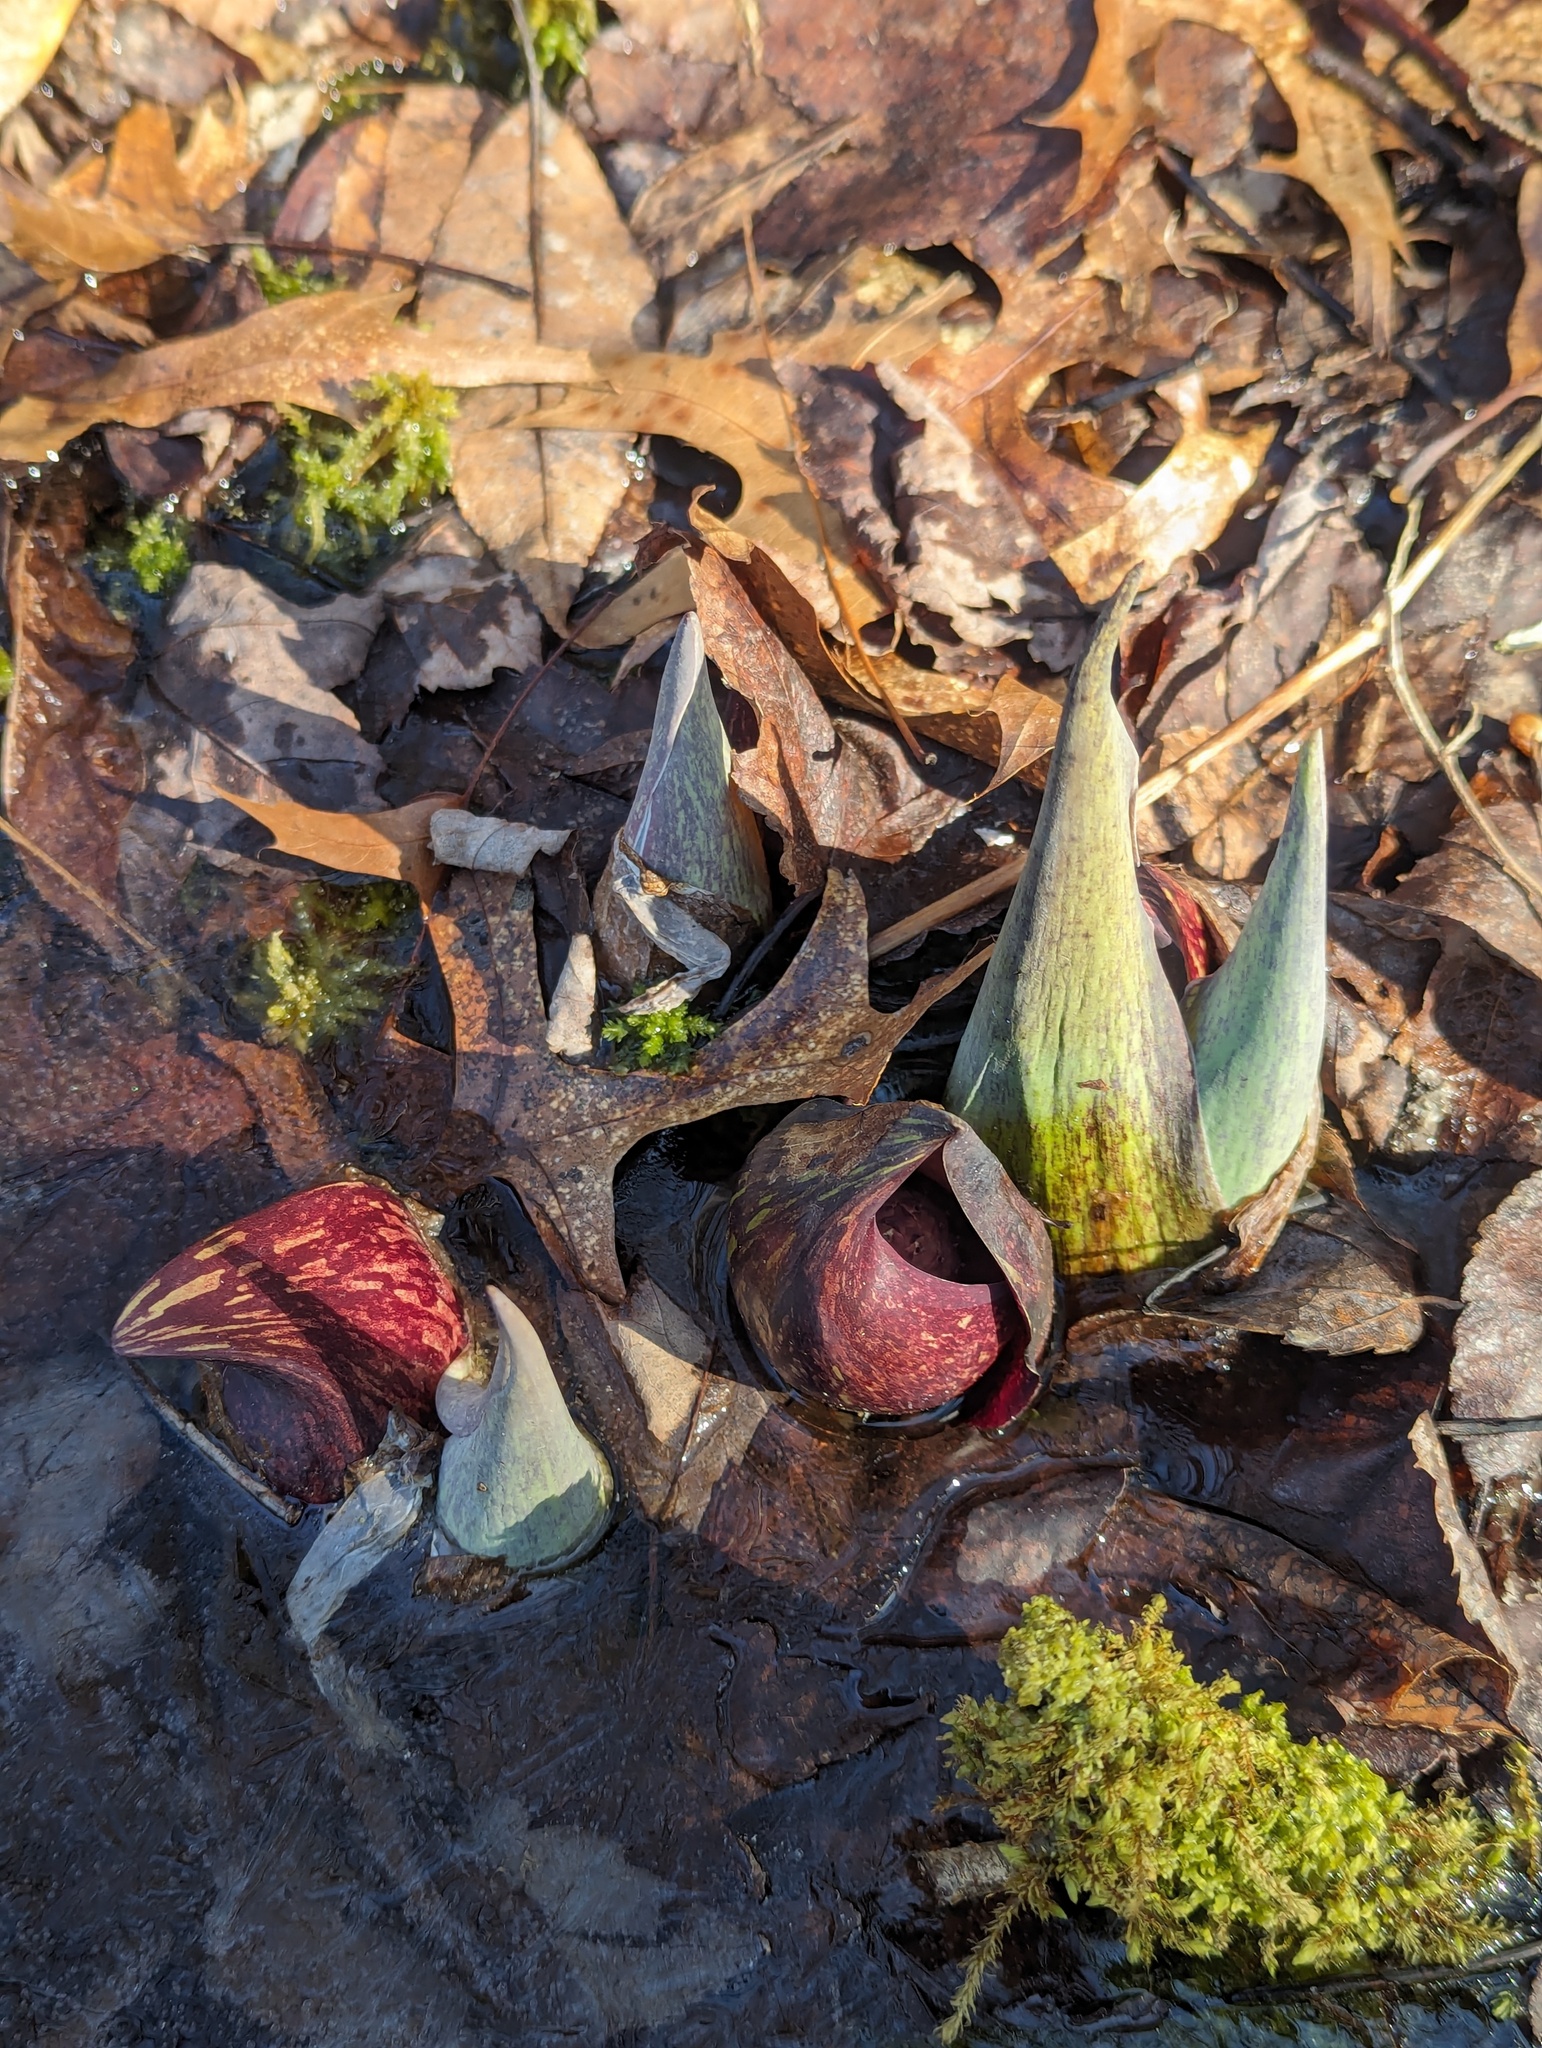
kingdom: Plantae
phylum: Tracheophyta
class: Liliopsida
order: Alismatales
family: Araceae
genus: Symplocarpus
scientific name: Symplocarpus foetidus
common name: Eastern skunk cabbage
